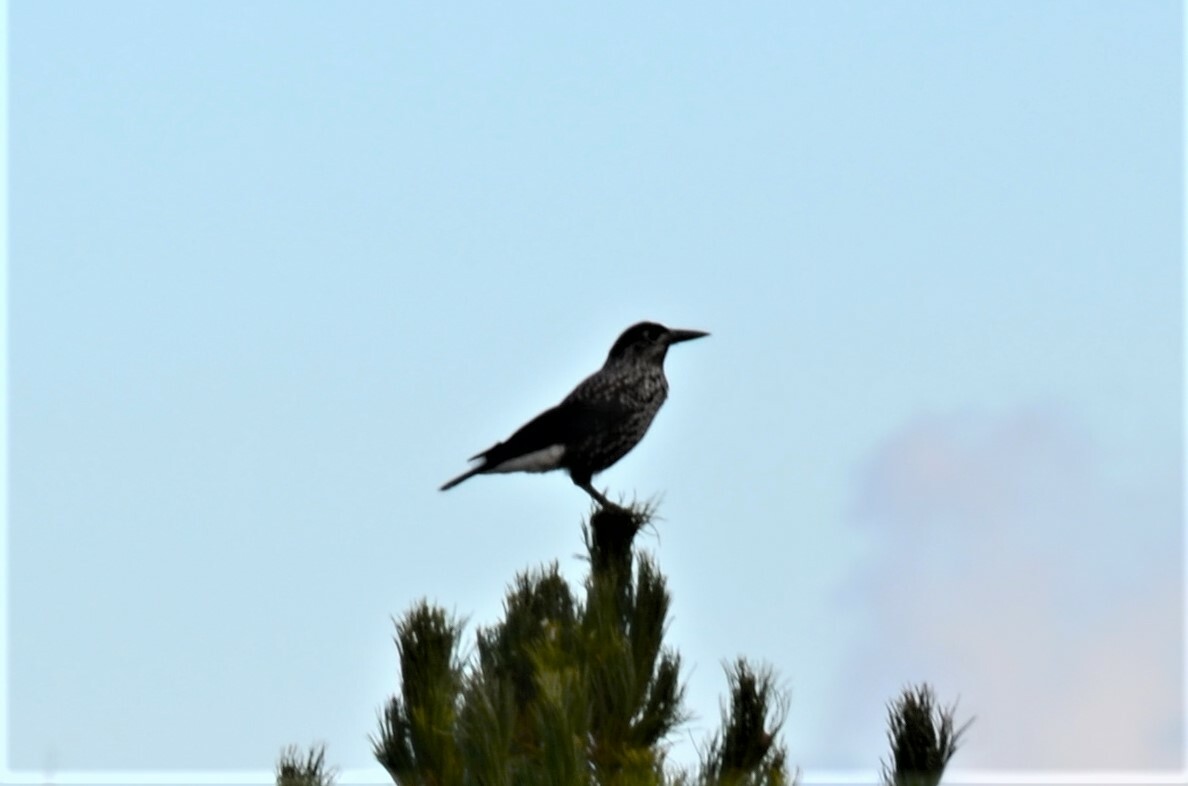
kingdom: Animalia
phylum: Chordata
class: Aves
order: Passeriformes
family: Corvidae
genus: Nucifraga
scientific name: Nucifraga caryocatactes
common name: Spotted nutcracker
